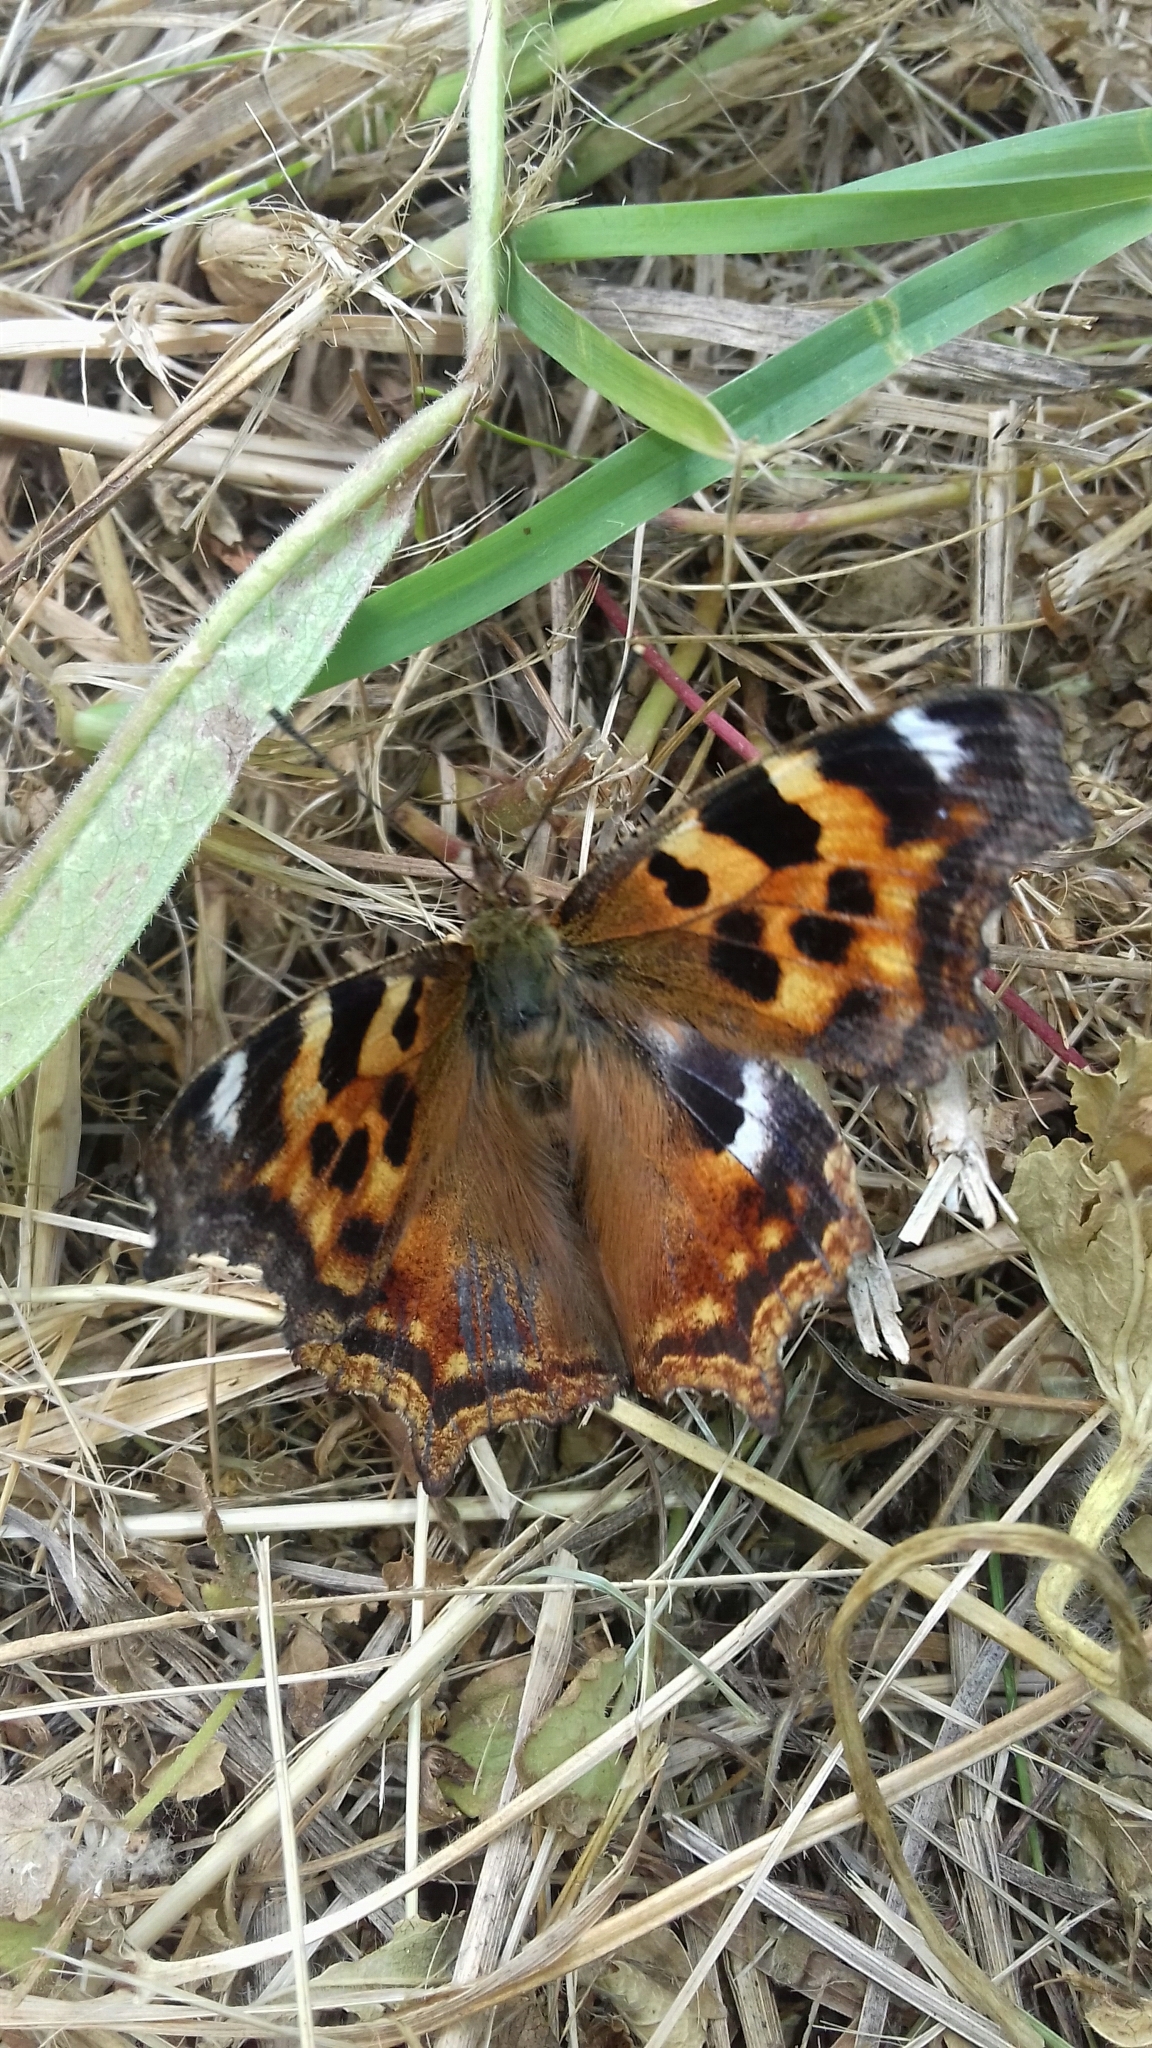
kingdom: Animalia
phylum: Arthropoda
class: Insecta
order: Lepidoptera
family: Nymphalidae
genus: Polygonia
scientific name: Polygonia vaualbum
